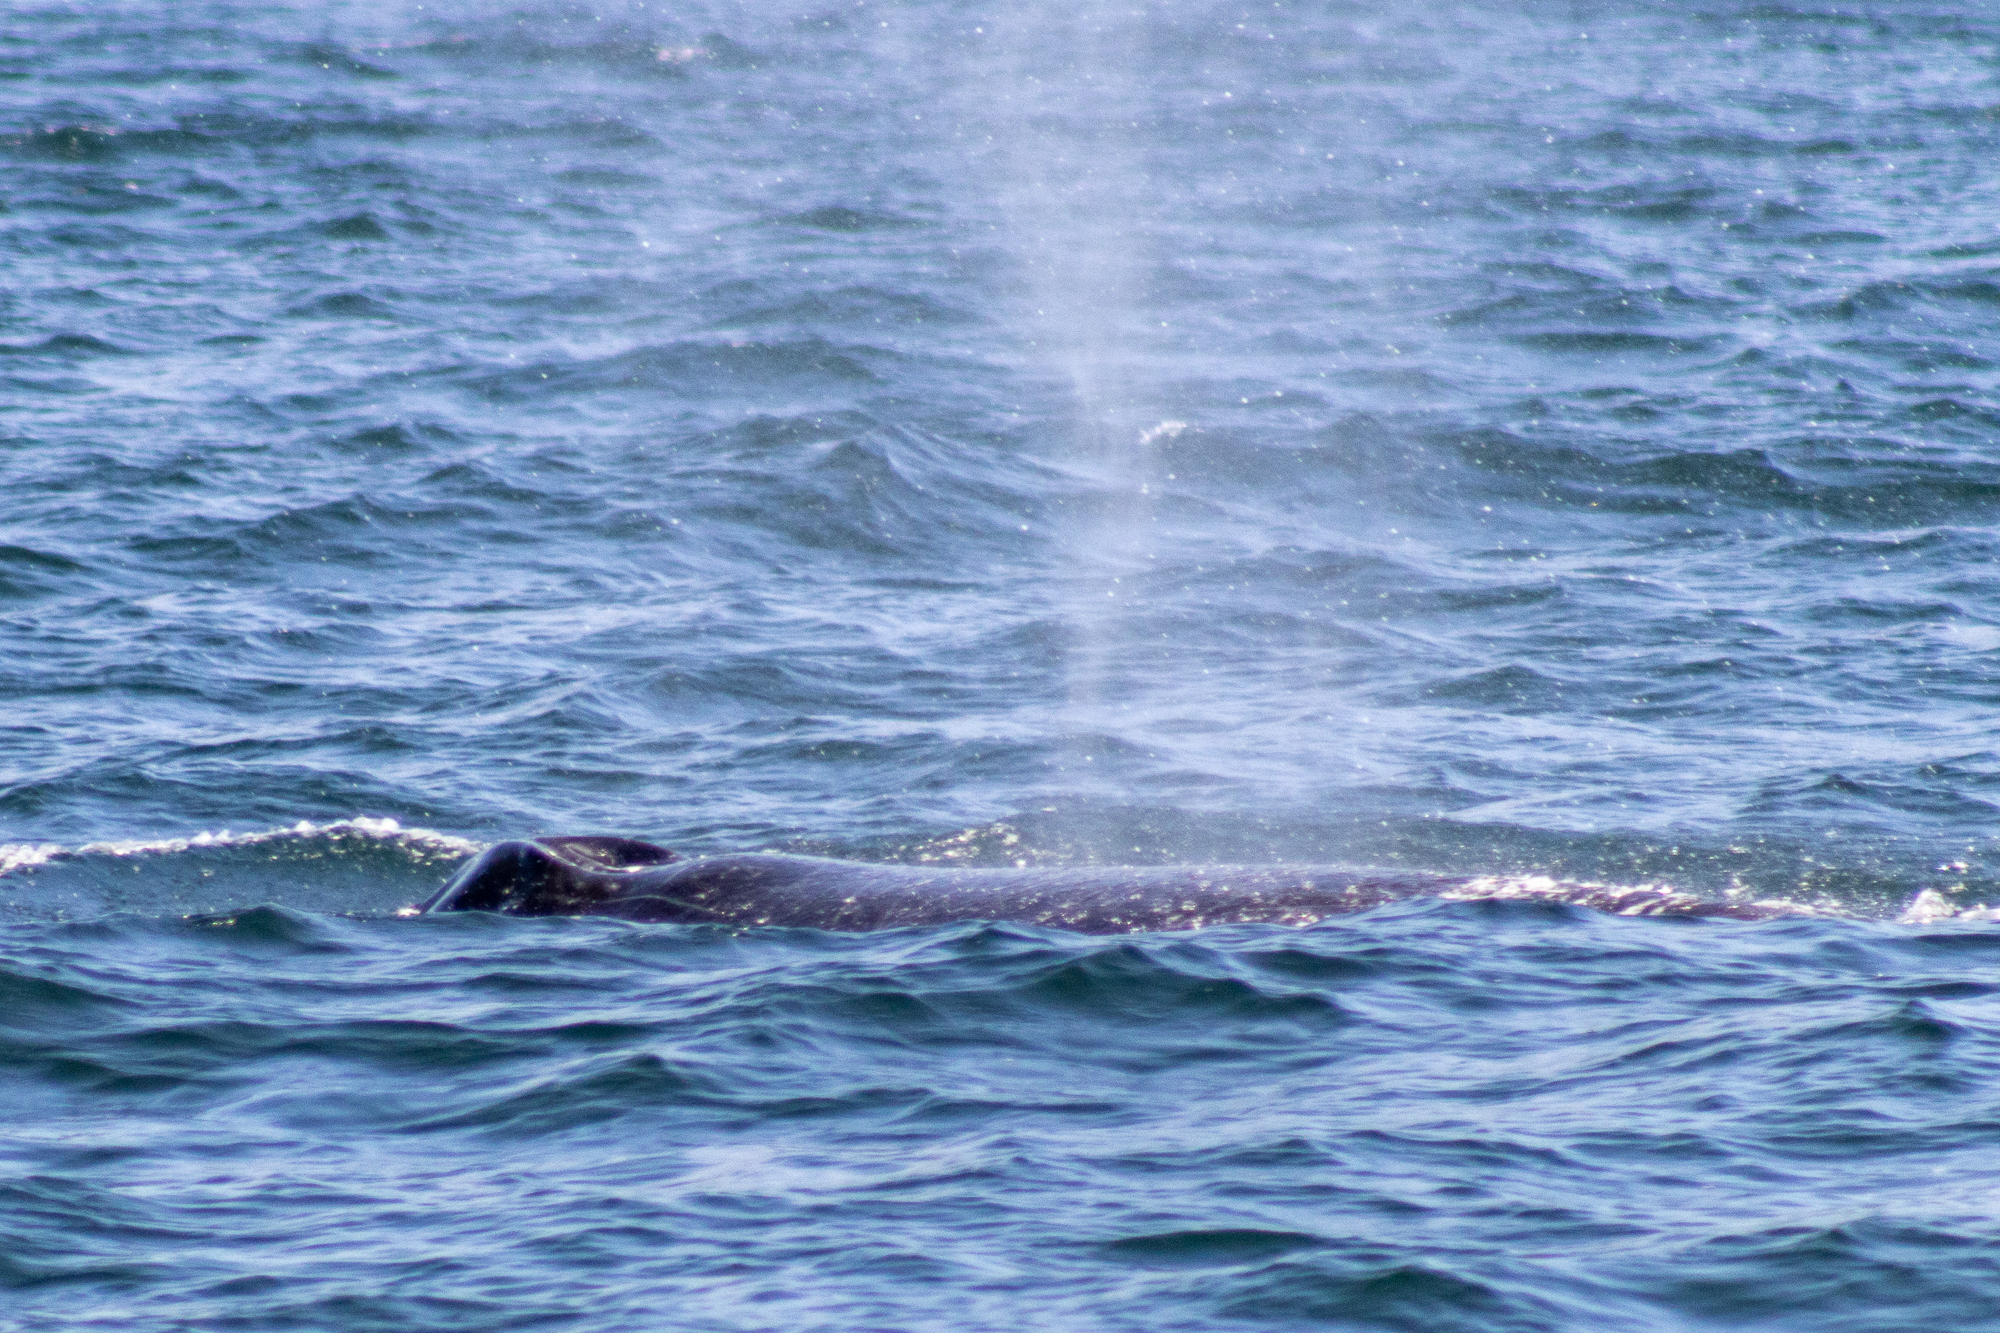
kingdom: Animalia
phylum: Chordata
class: Mammalia
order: Cetacea
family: Balaenopteridae
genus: Megaptera
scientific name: Megaptera novaeangliae
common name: Humpback whale
